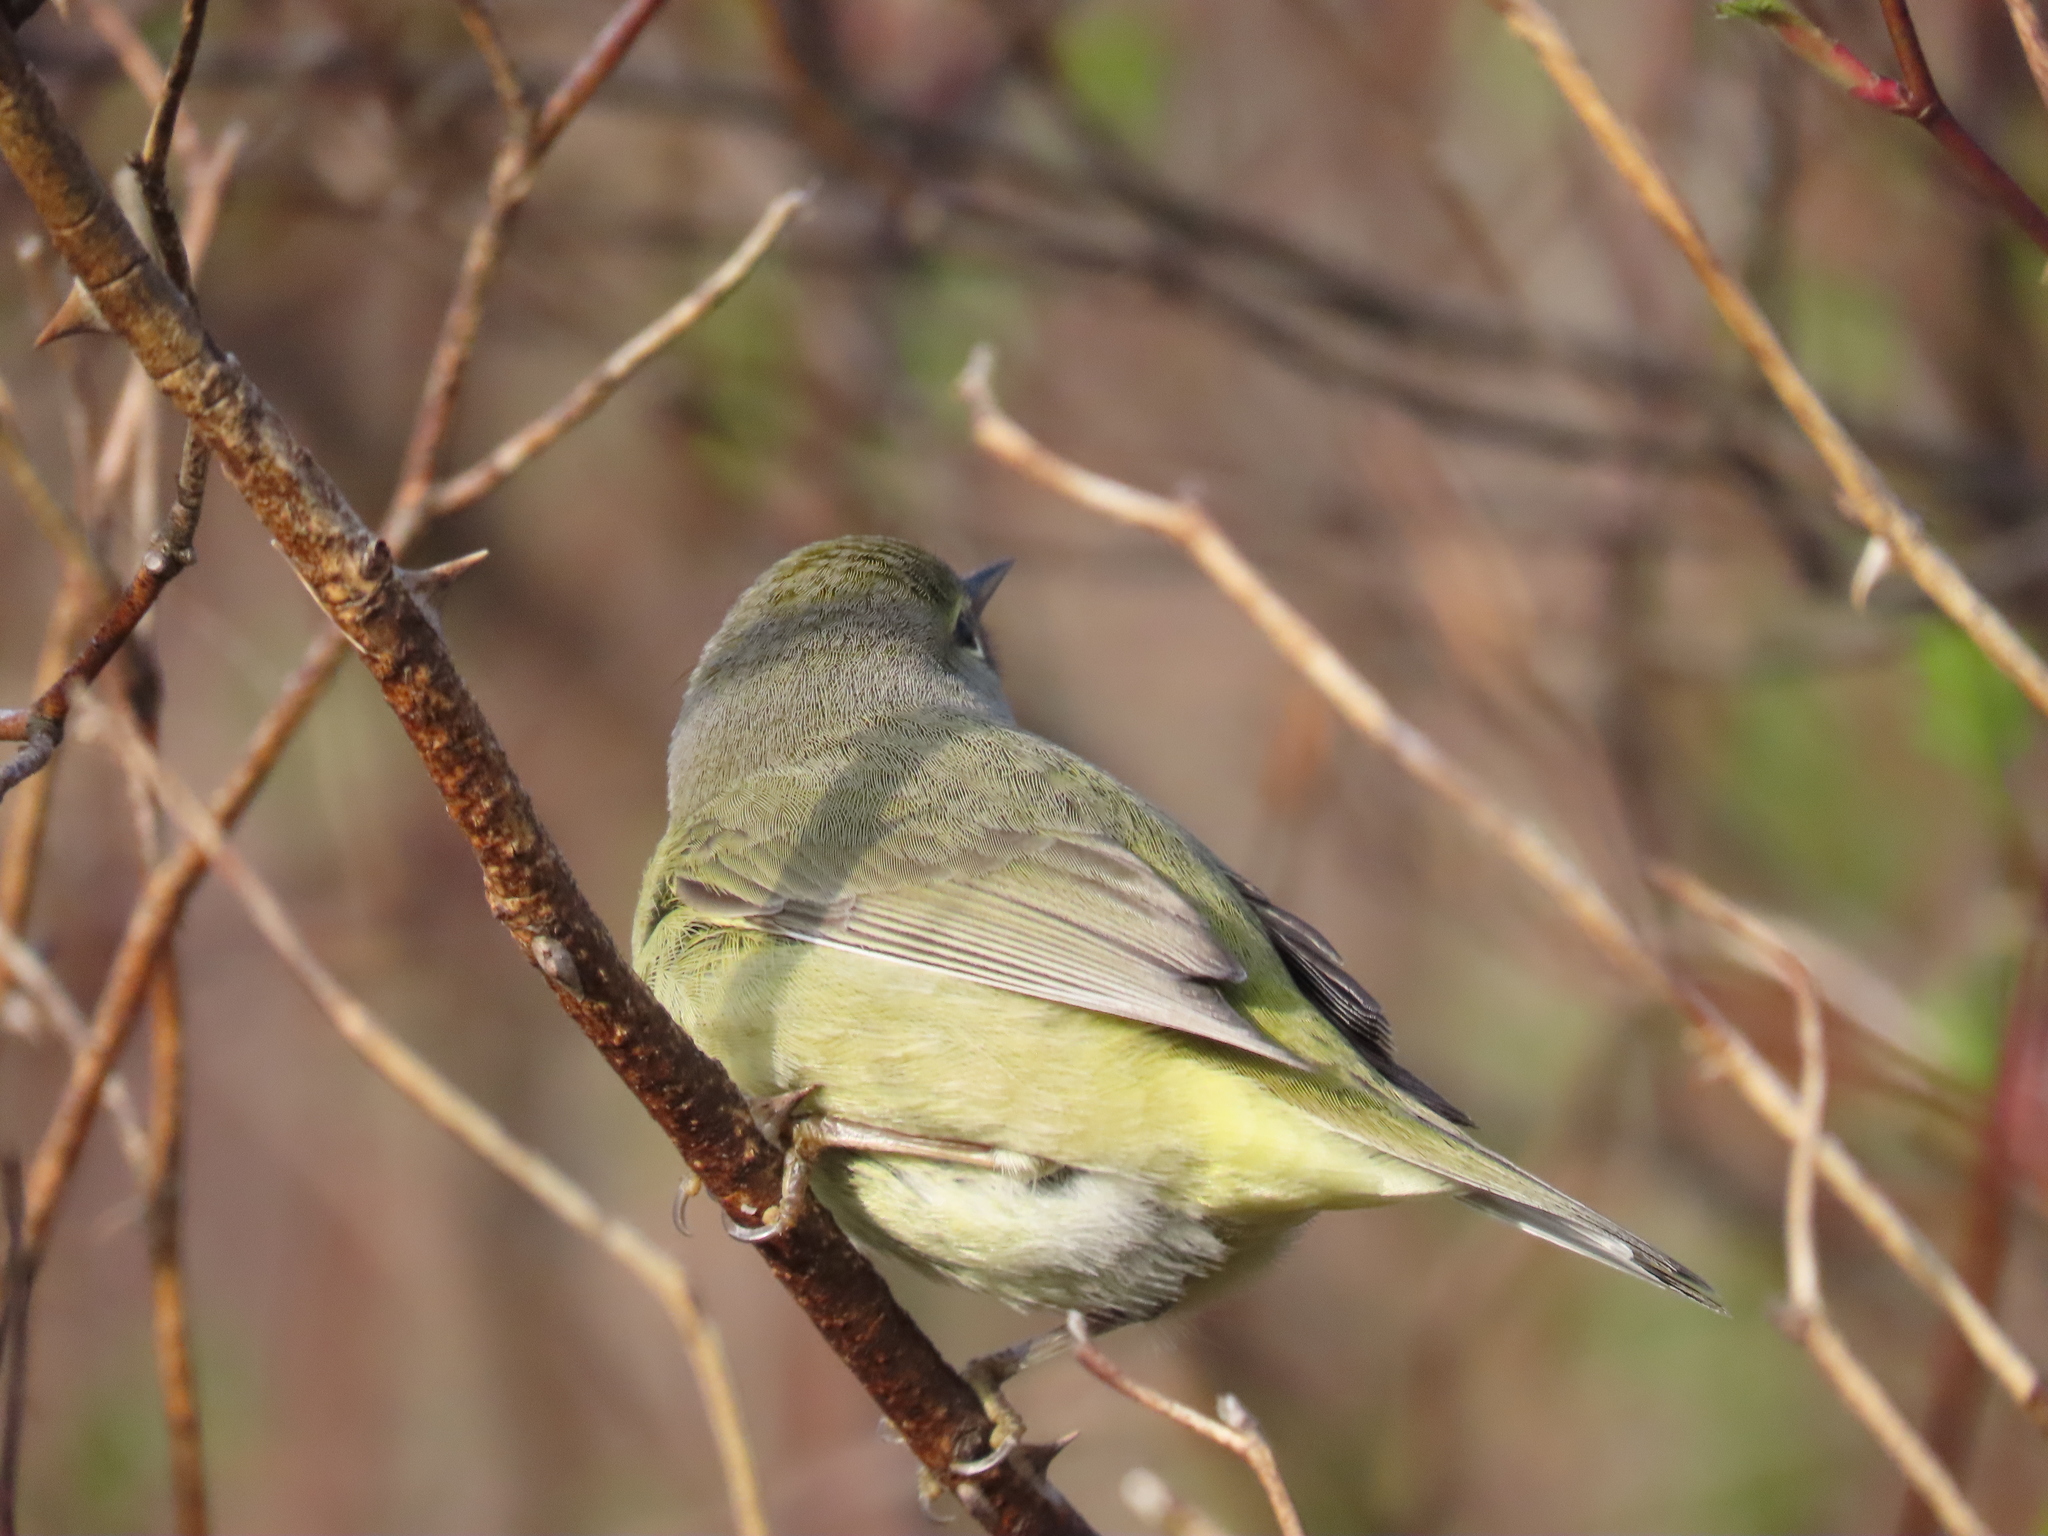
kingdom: Animalia
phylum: Chordata
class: Aves
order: Passeriformes
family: Parulidae
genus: Leiothlypis
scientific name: Leiothlypis celata
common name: Orange-crowned warbler
